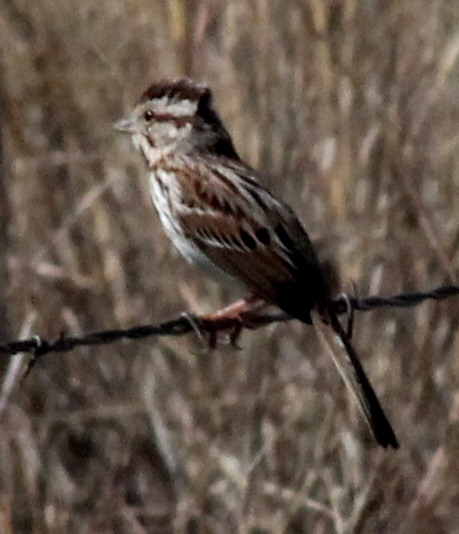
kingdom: Animalia
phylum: Chordata
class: Aves
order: Passeriformes
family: Passerellidae
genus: Melospiza
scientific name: Melospiza melodia
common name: Song sparrow
